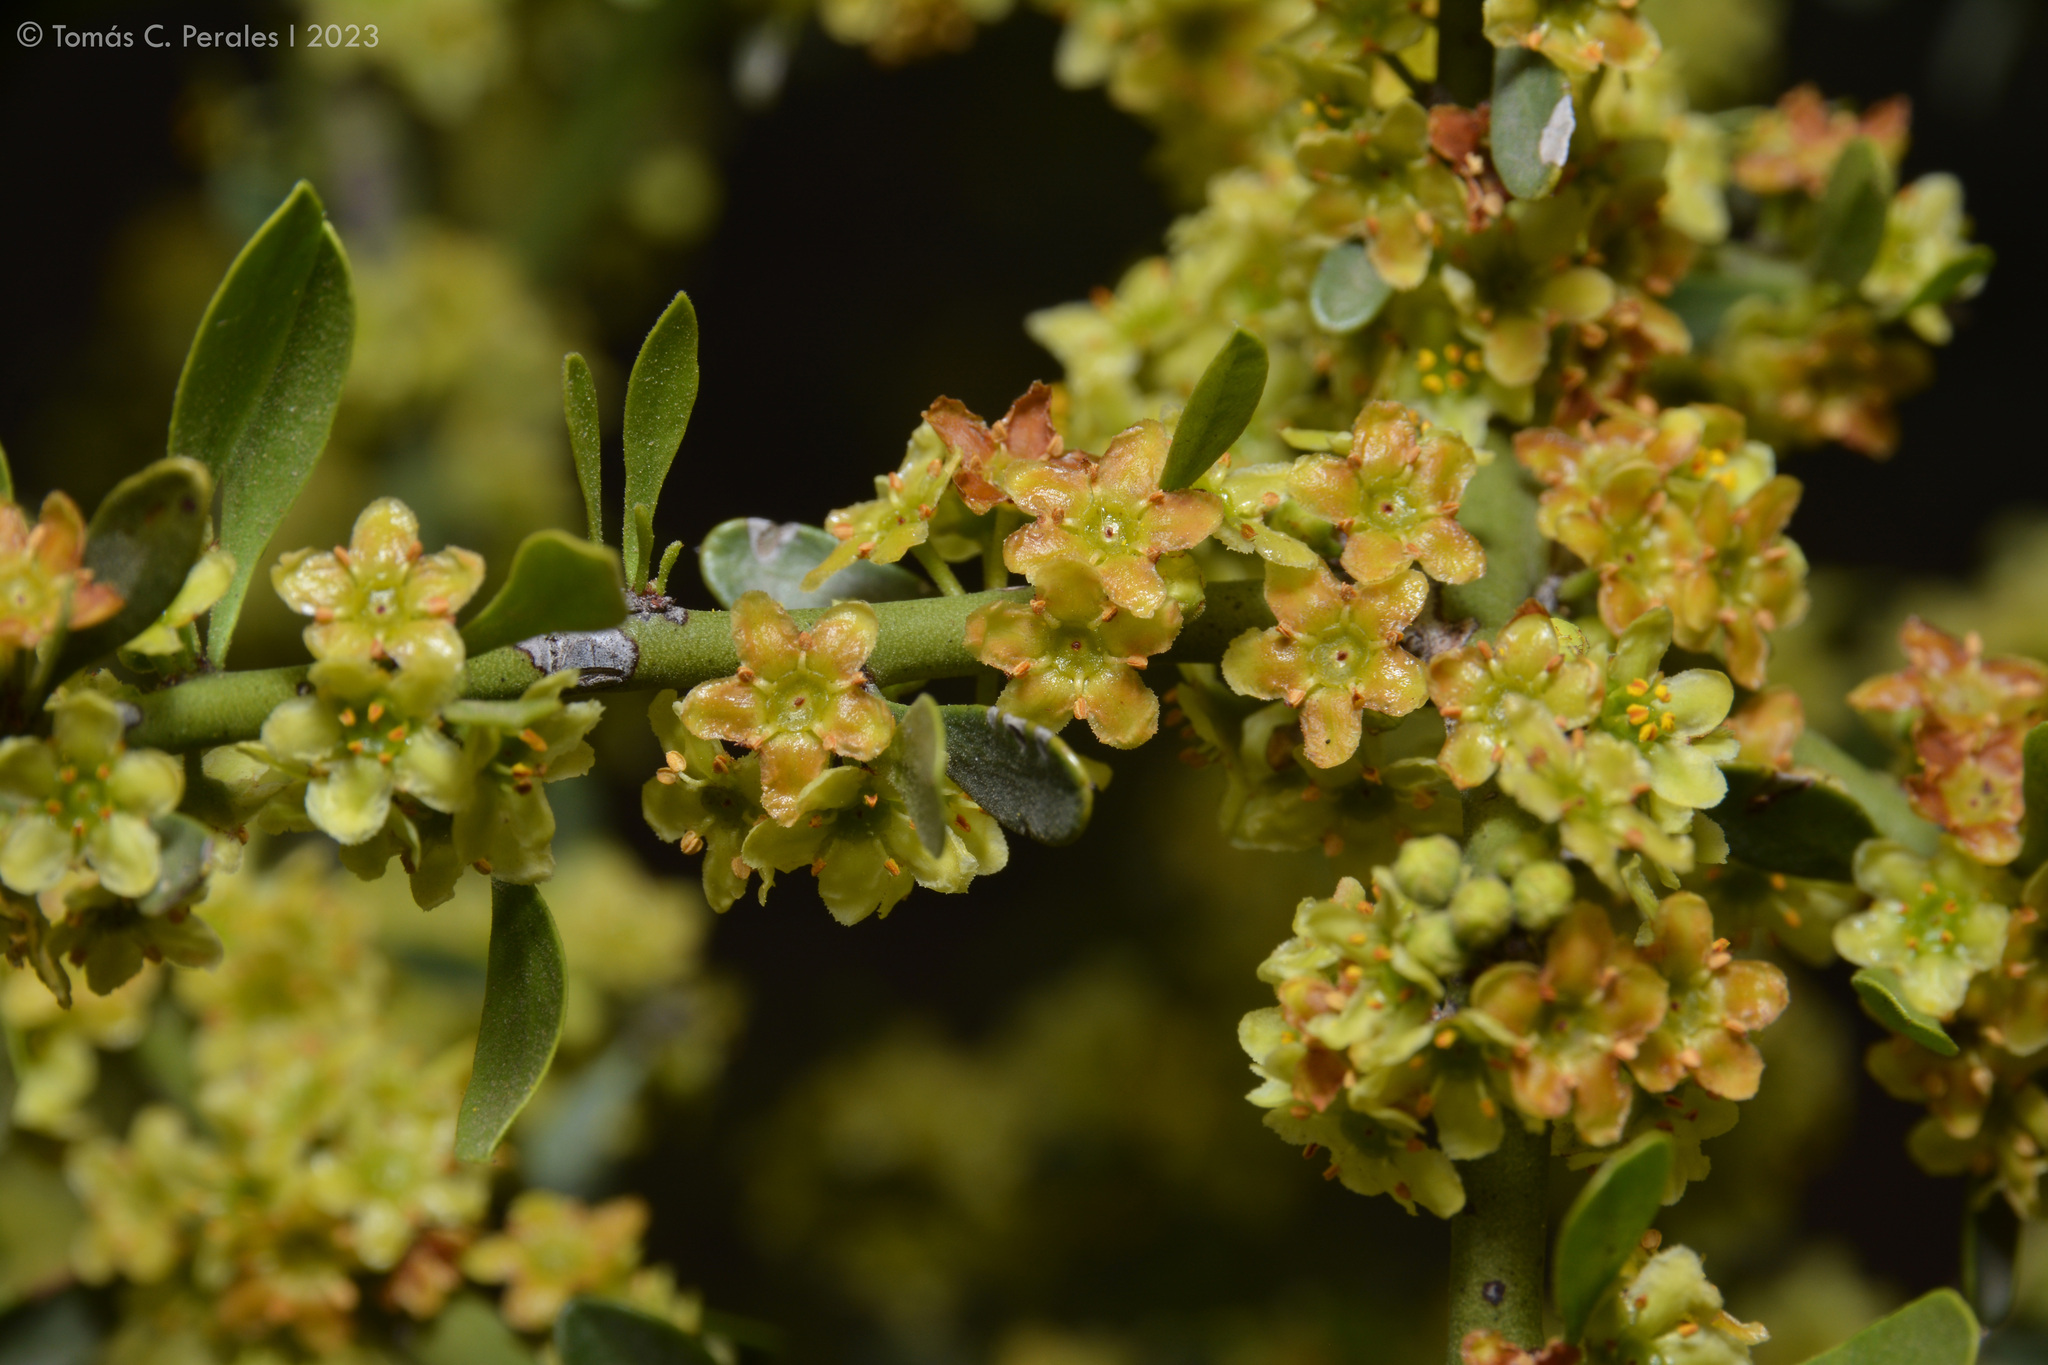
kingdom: Plantae
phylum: Tracheophyta
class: Magnoliopsida
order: Celastrales
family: Celastraceae
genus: Monteverdia
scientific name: Monteverdia spinosa
